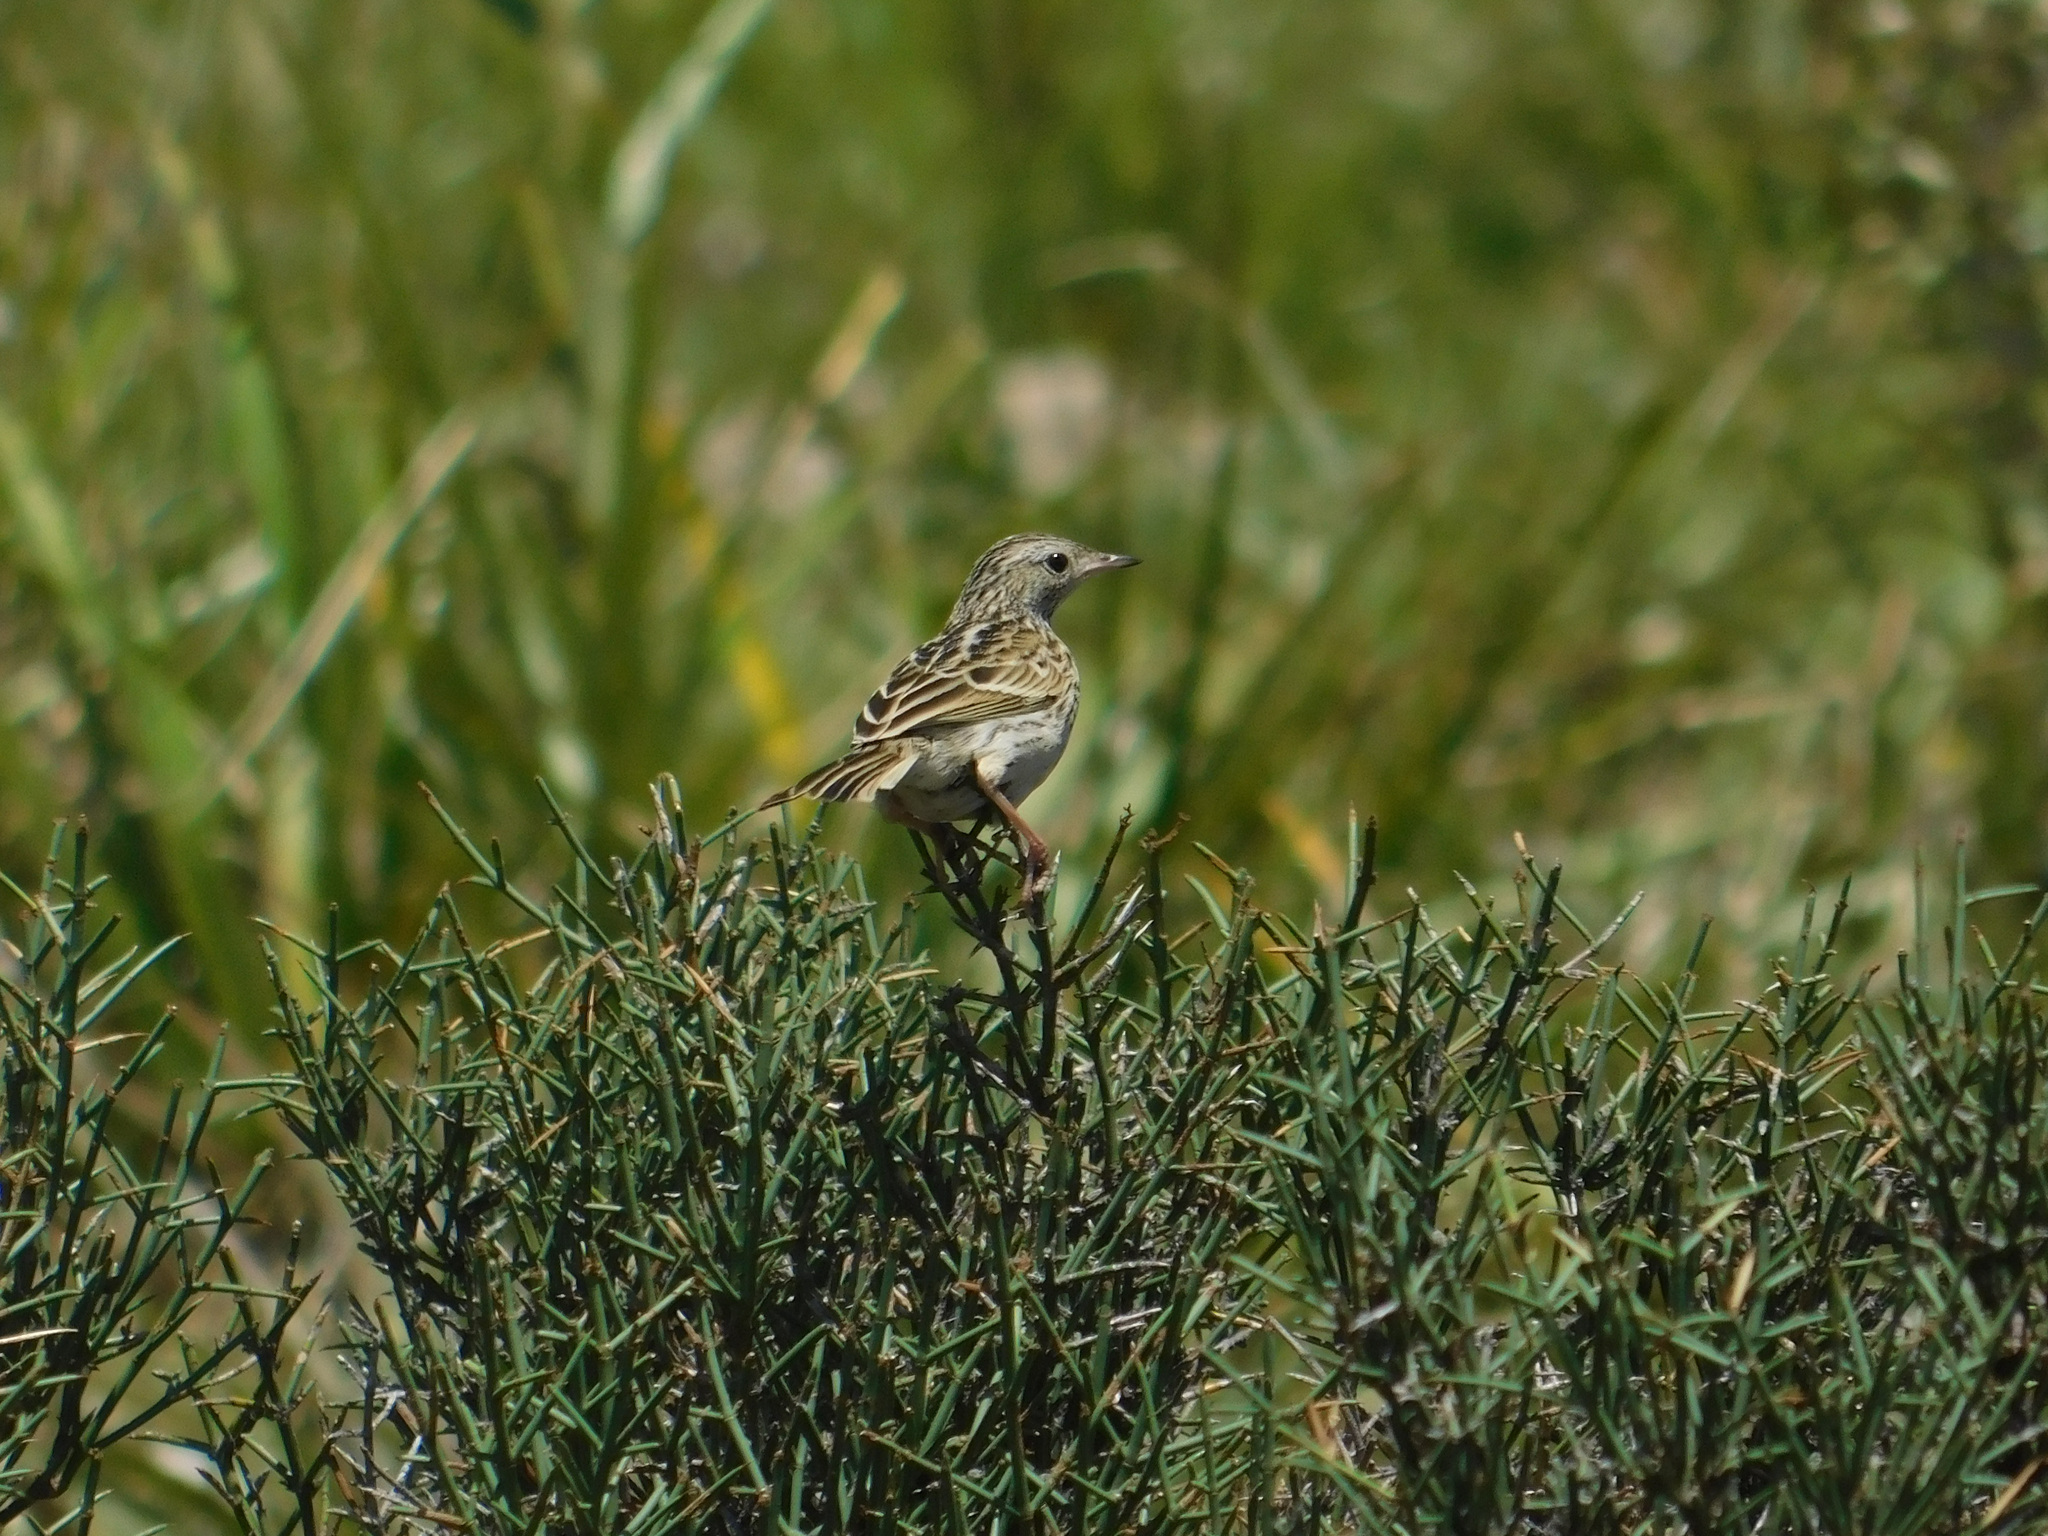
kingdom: Animalia
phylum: Chordata
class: Aves
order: Passeriformes
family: Motacillidae
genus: Anthus
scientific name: Anthus correndera
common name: Correndera pipit
